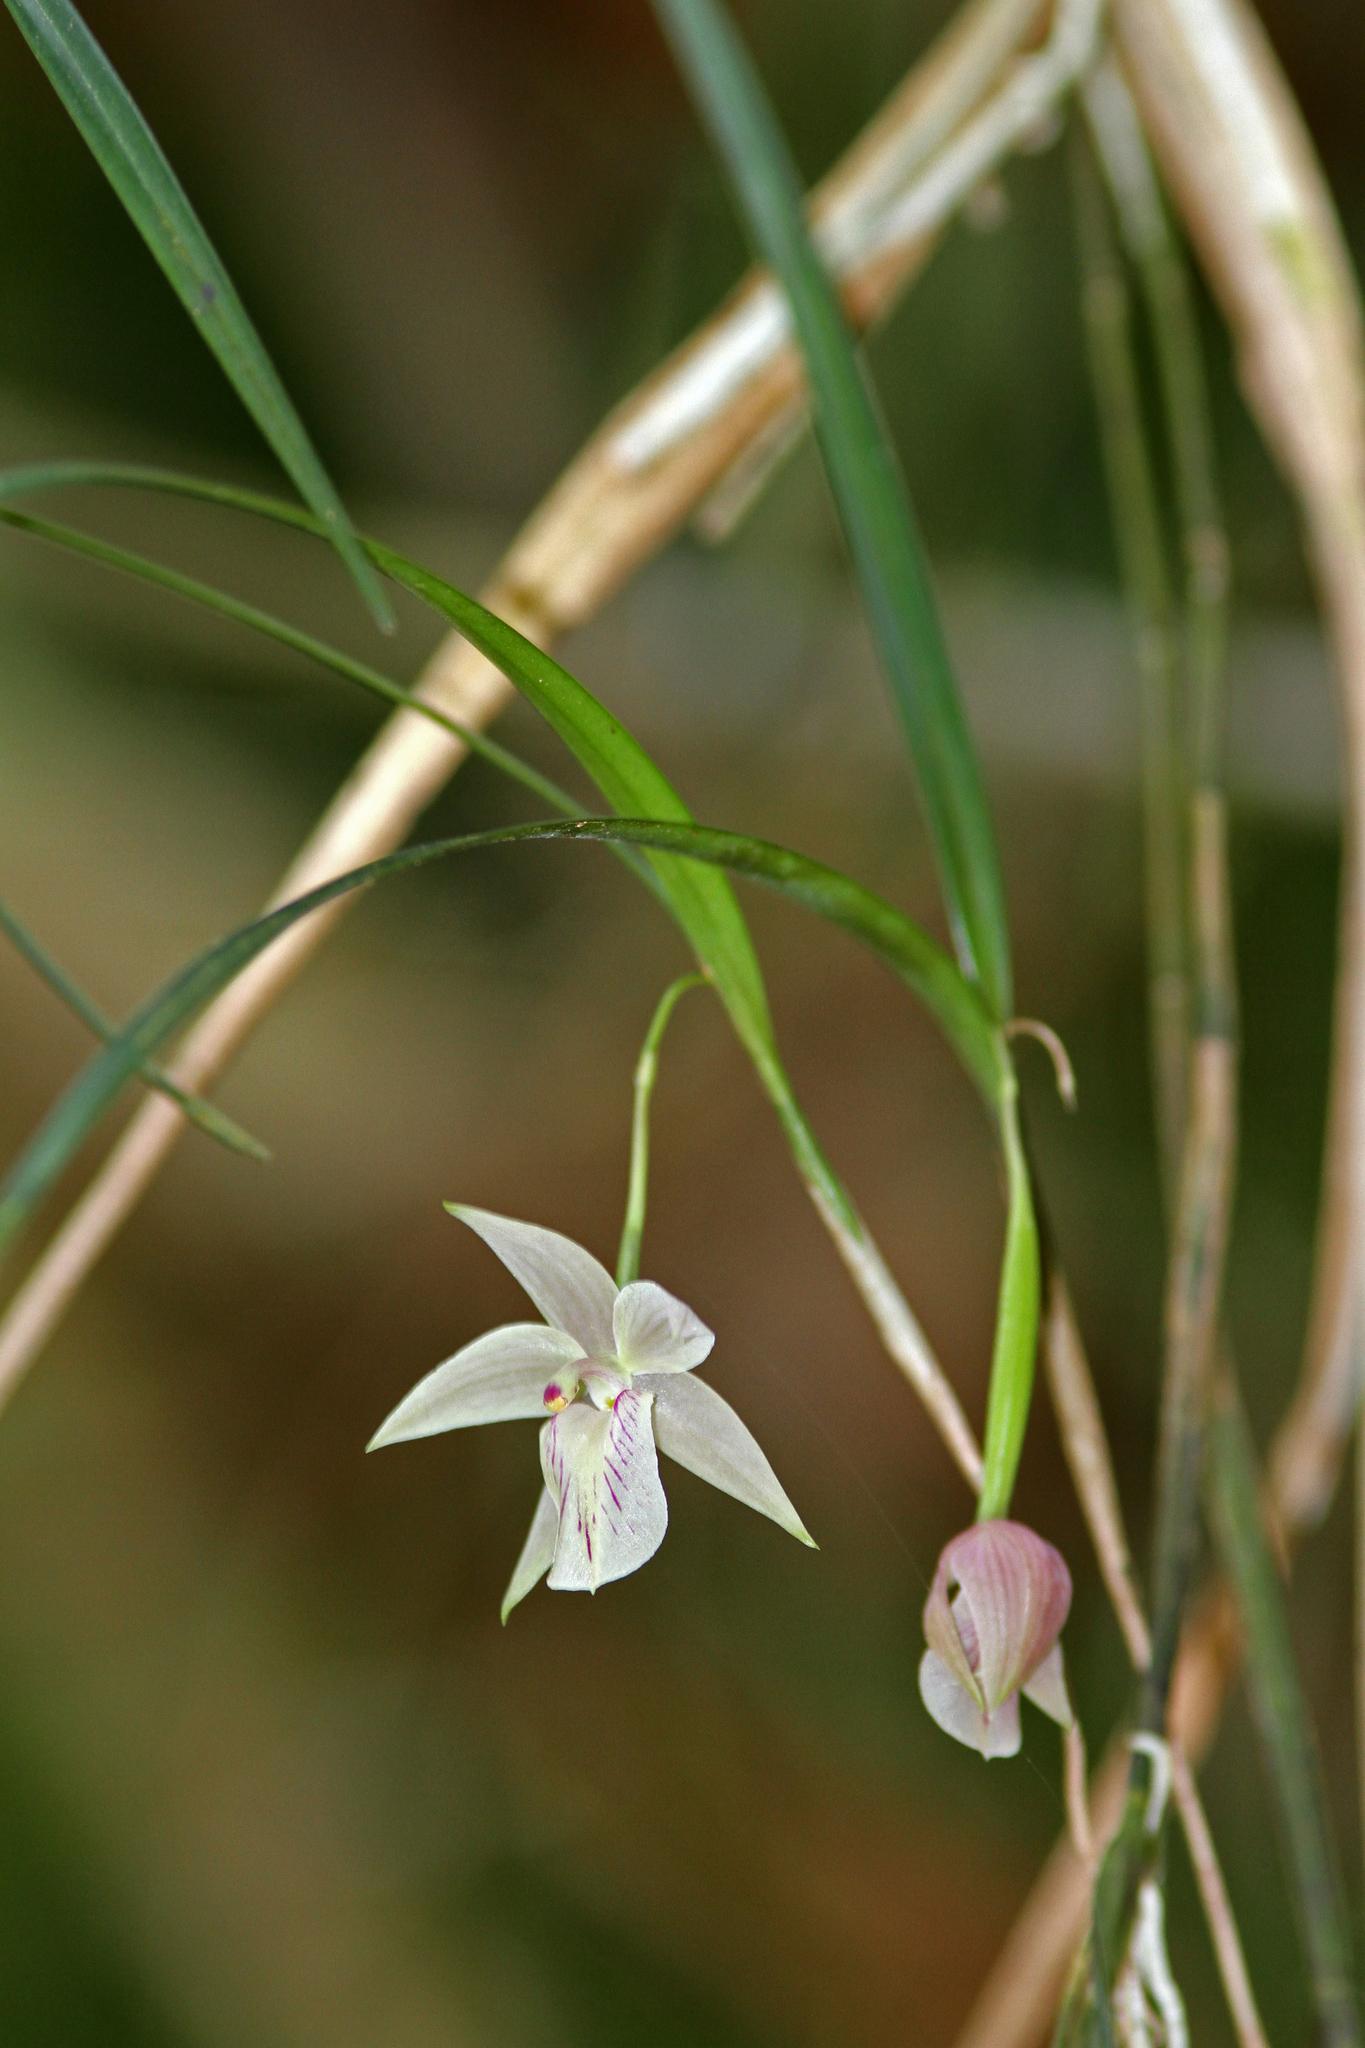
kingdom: Plantae
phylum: Tracheophyta
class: Liliopsida
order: Asparagales
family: Orchidaceae
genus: Scaphyglottis
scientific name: Scaphyglottis pulchella
